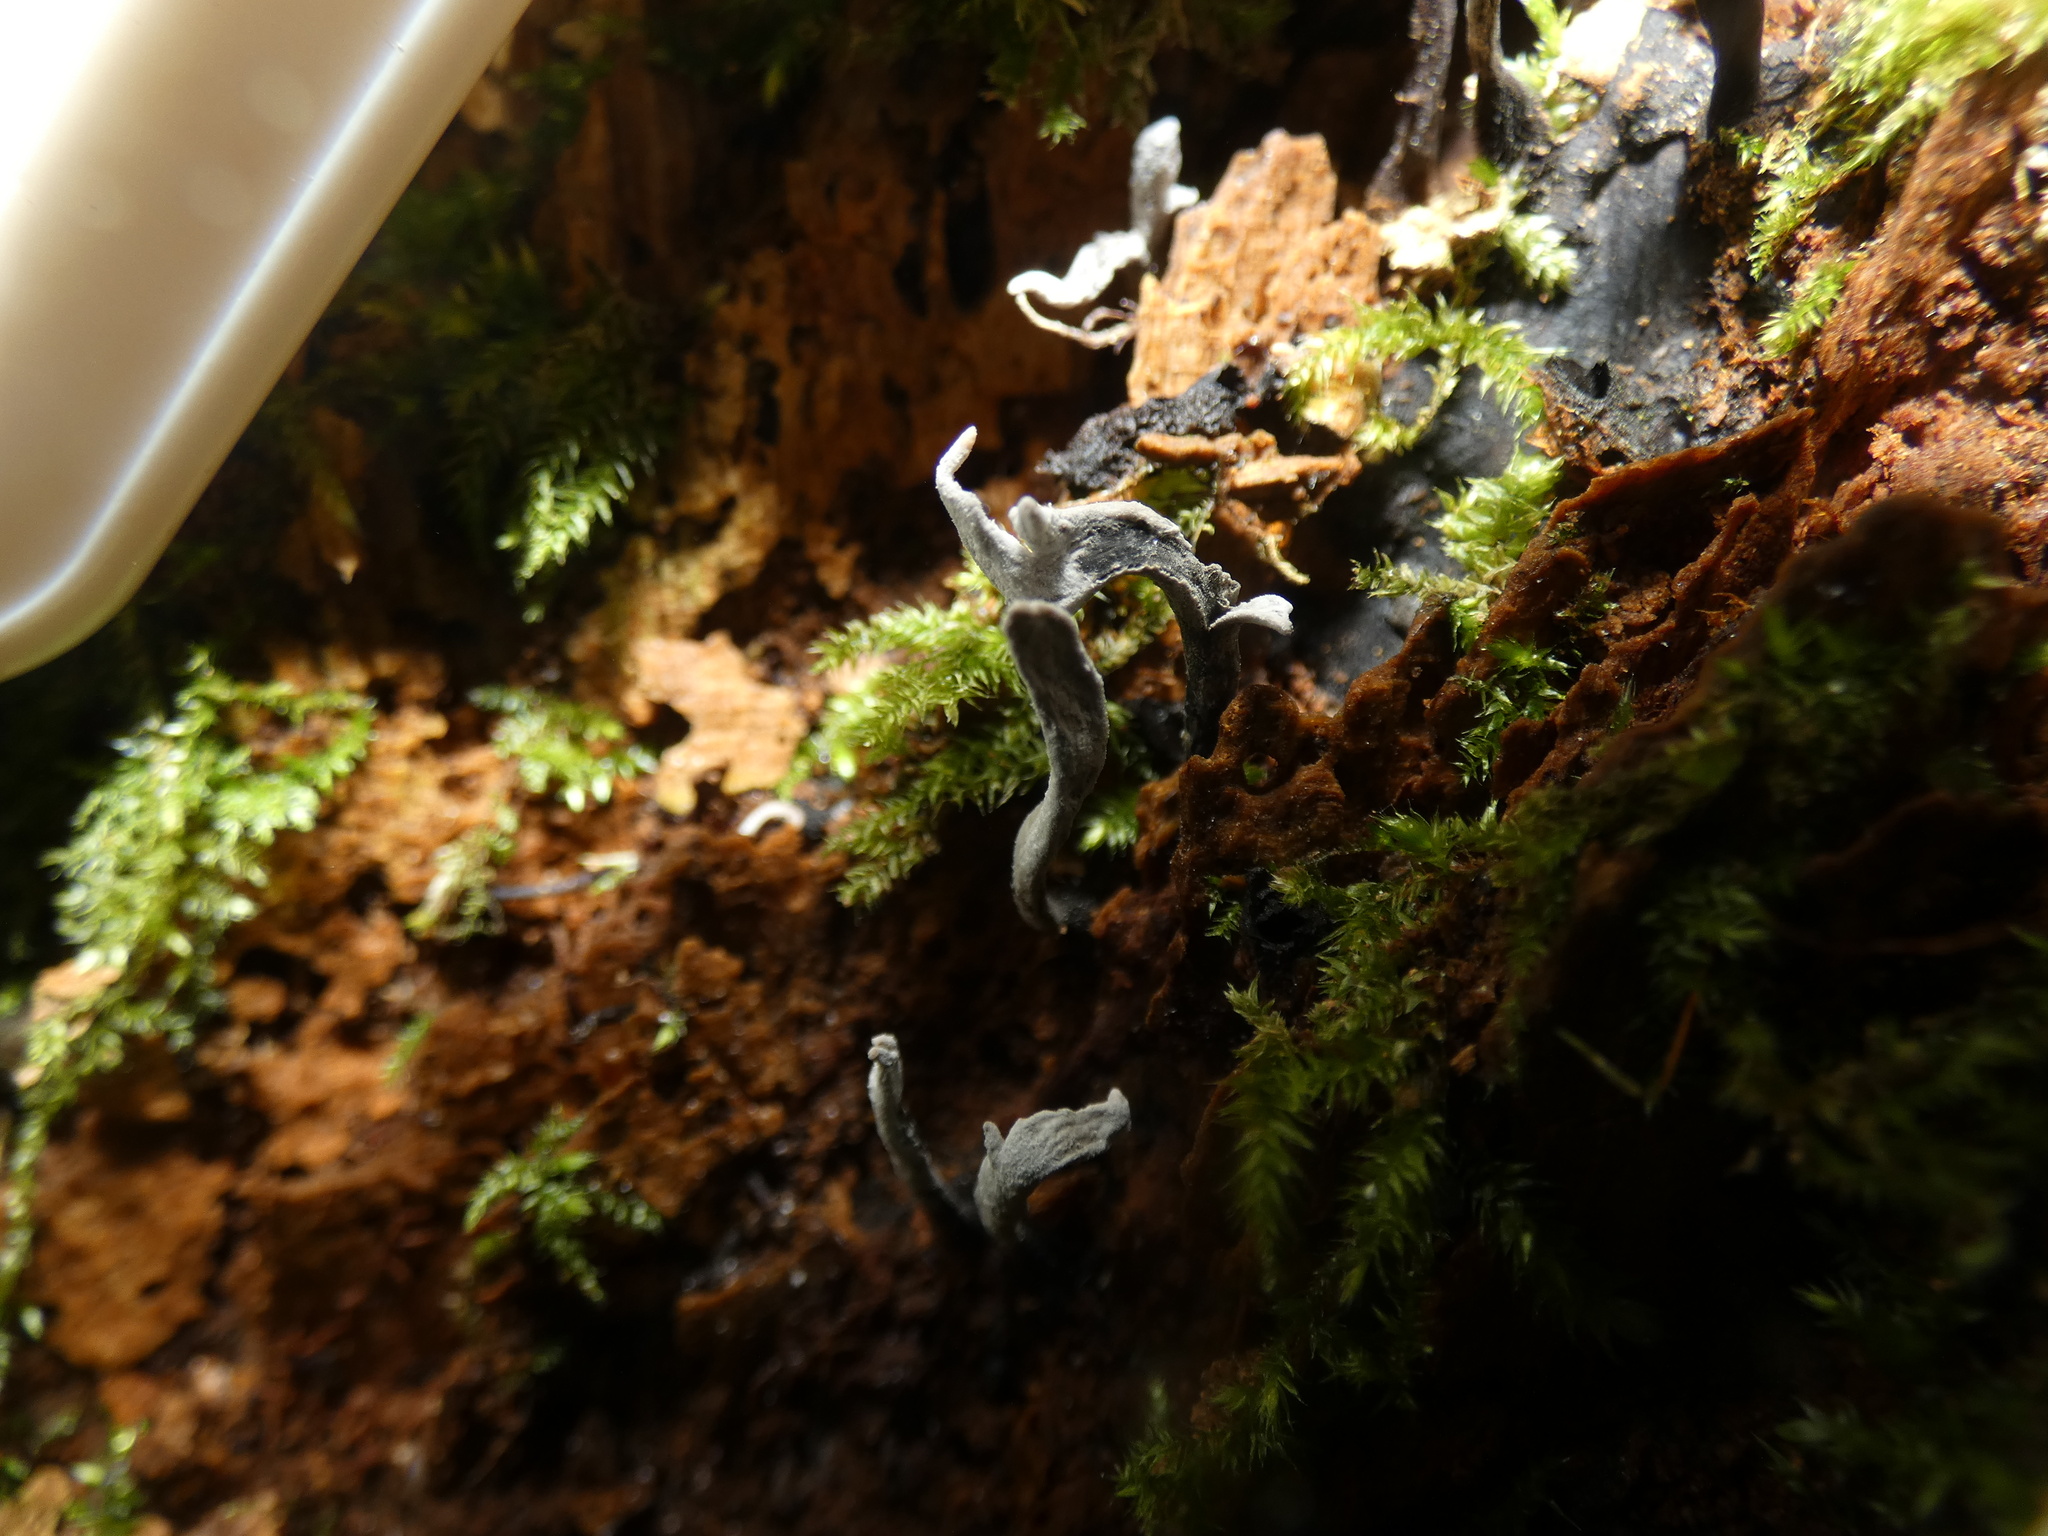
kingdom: Fungi
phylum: Ascomycota
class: Sordariomycetes
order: Xylariales
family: Xylariaceae
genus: Xylaria
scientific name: Xylaria hypoxylon
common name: Candle-snuff fungus
